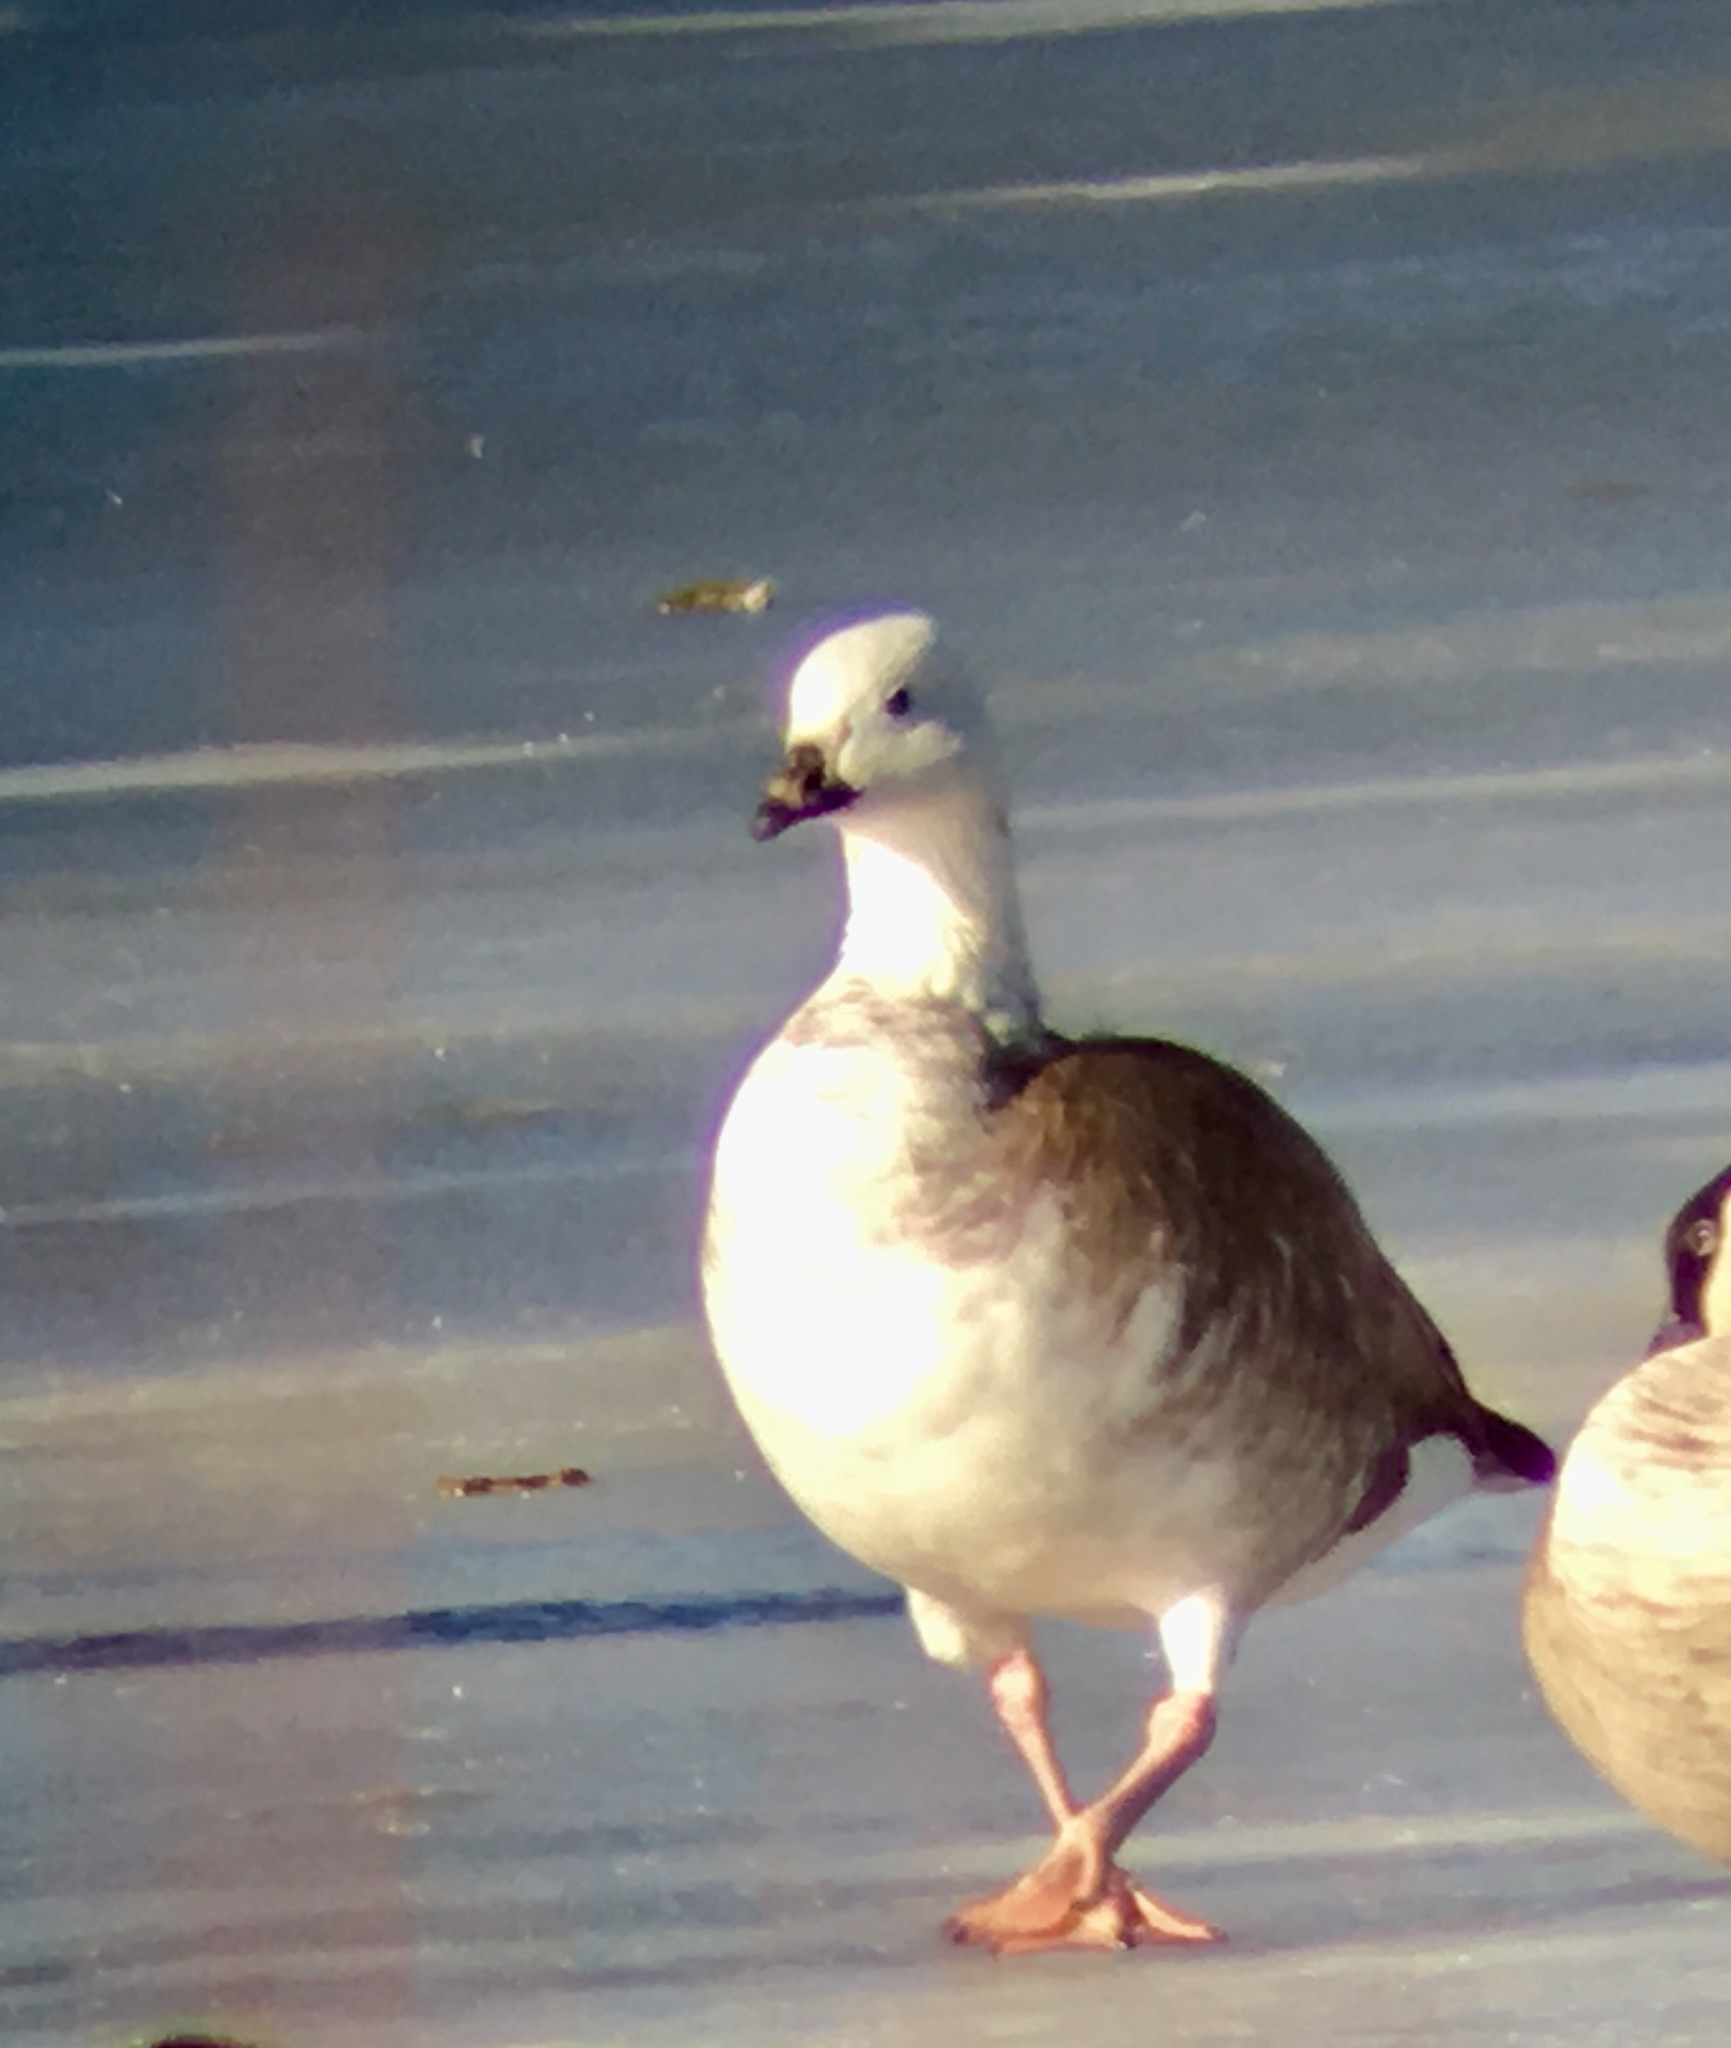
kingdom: Animalia
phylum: Chordata
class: Aves
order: Anseriformes
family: Anatidae
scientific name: Anatidae
